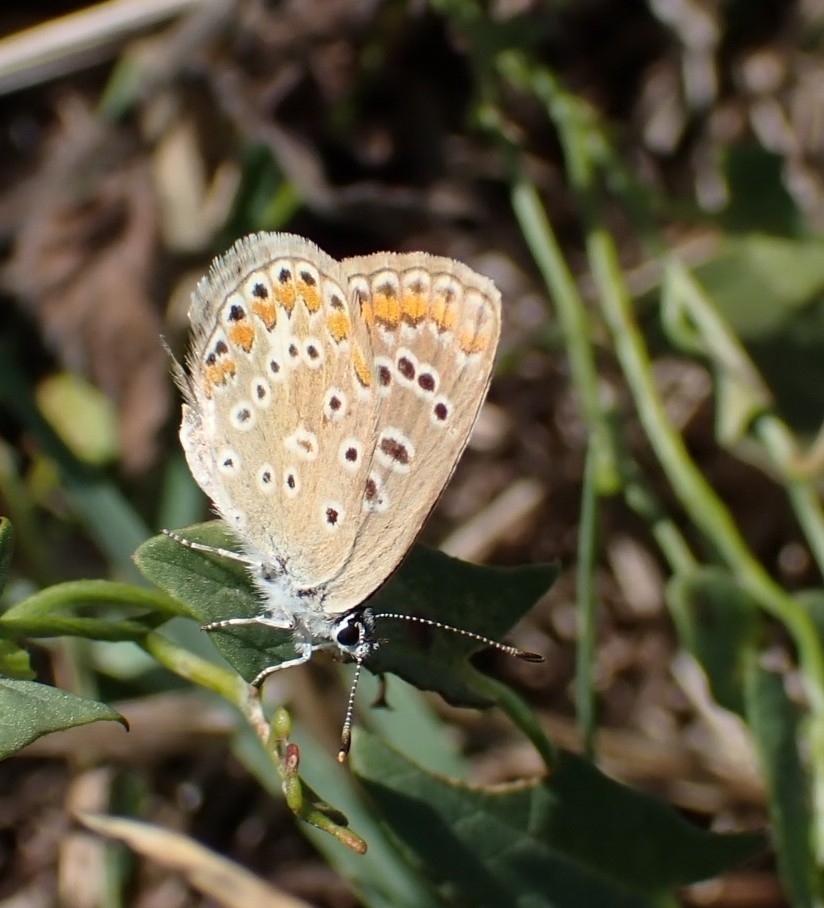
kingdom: Animalia
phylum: Arthropoda
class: Insecta
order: Lepidoptera
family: Lycaenidae
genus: Polyommatus
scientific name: Polyommatus icarus
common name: Common blue
